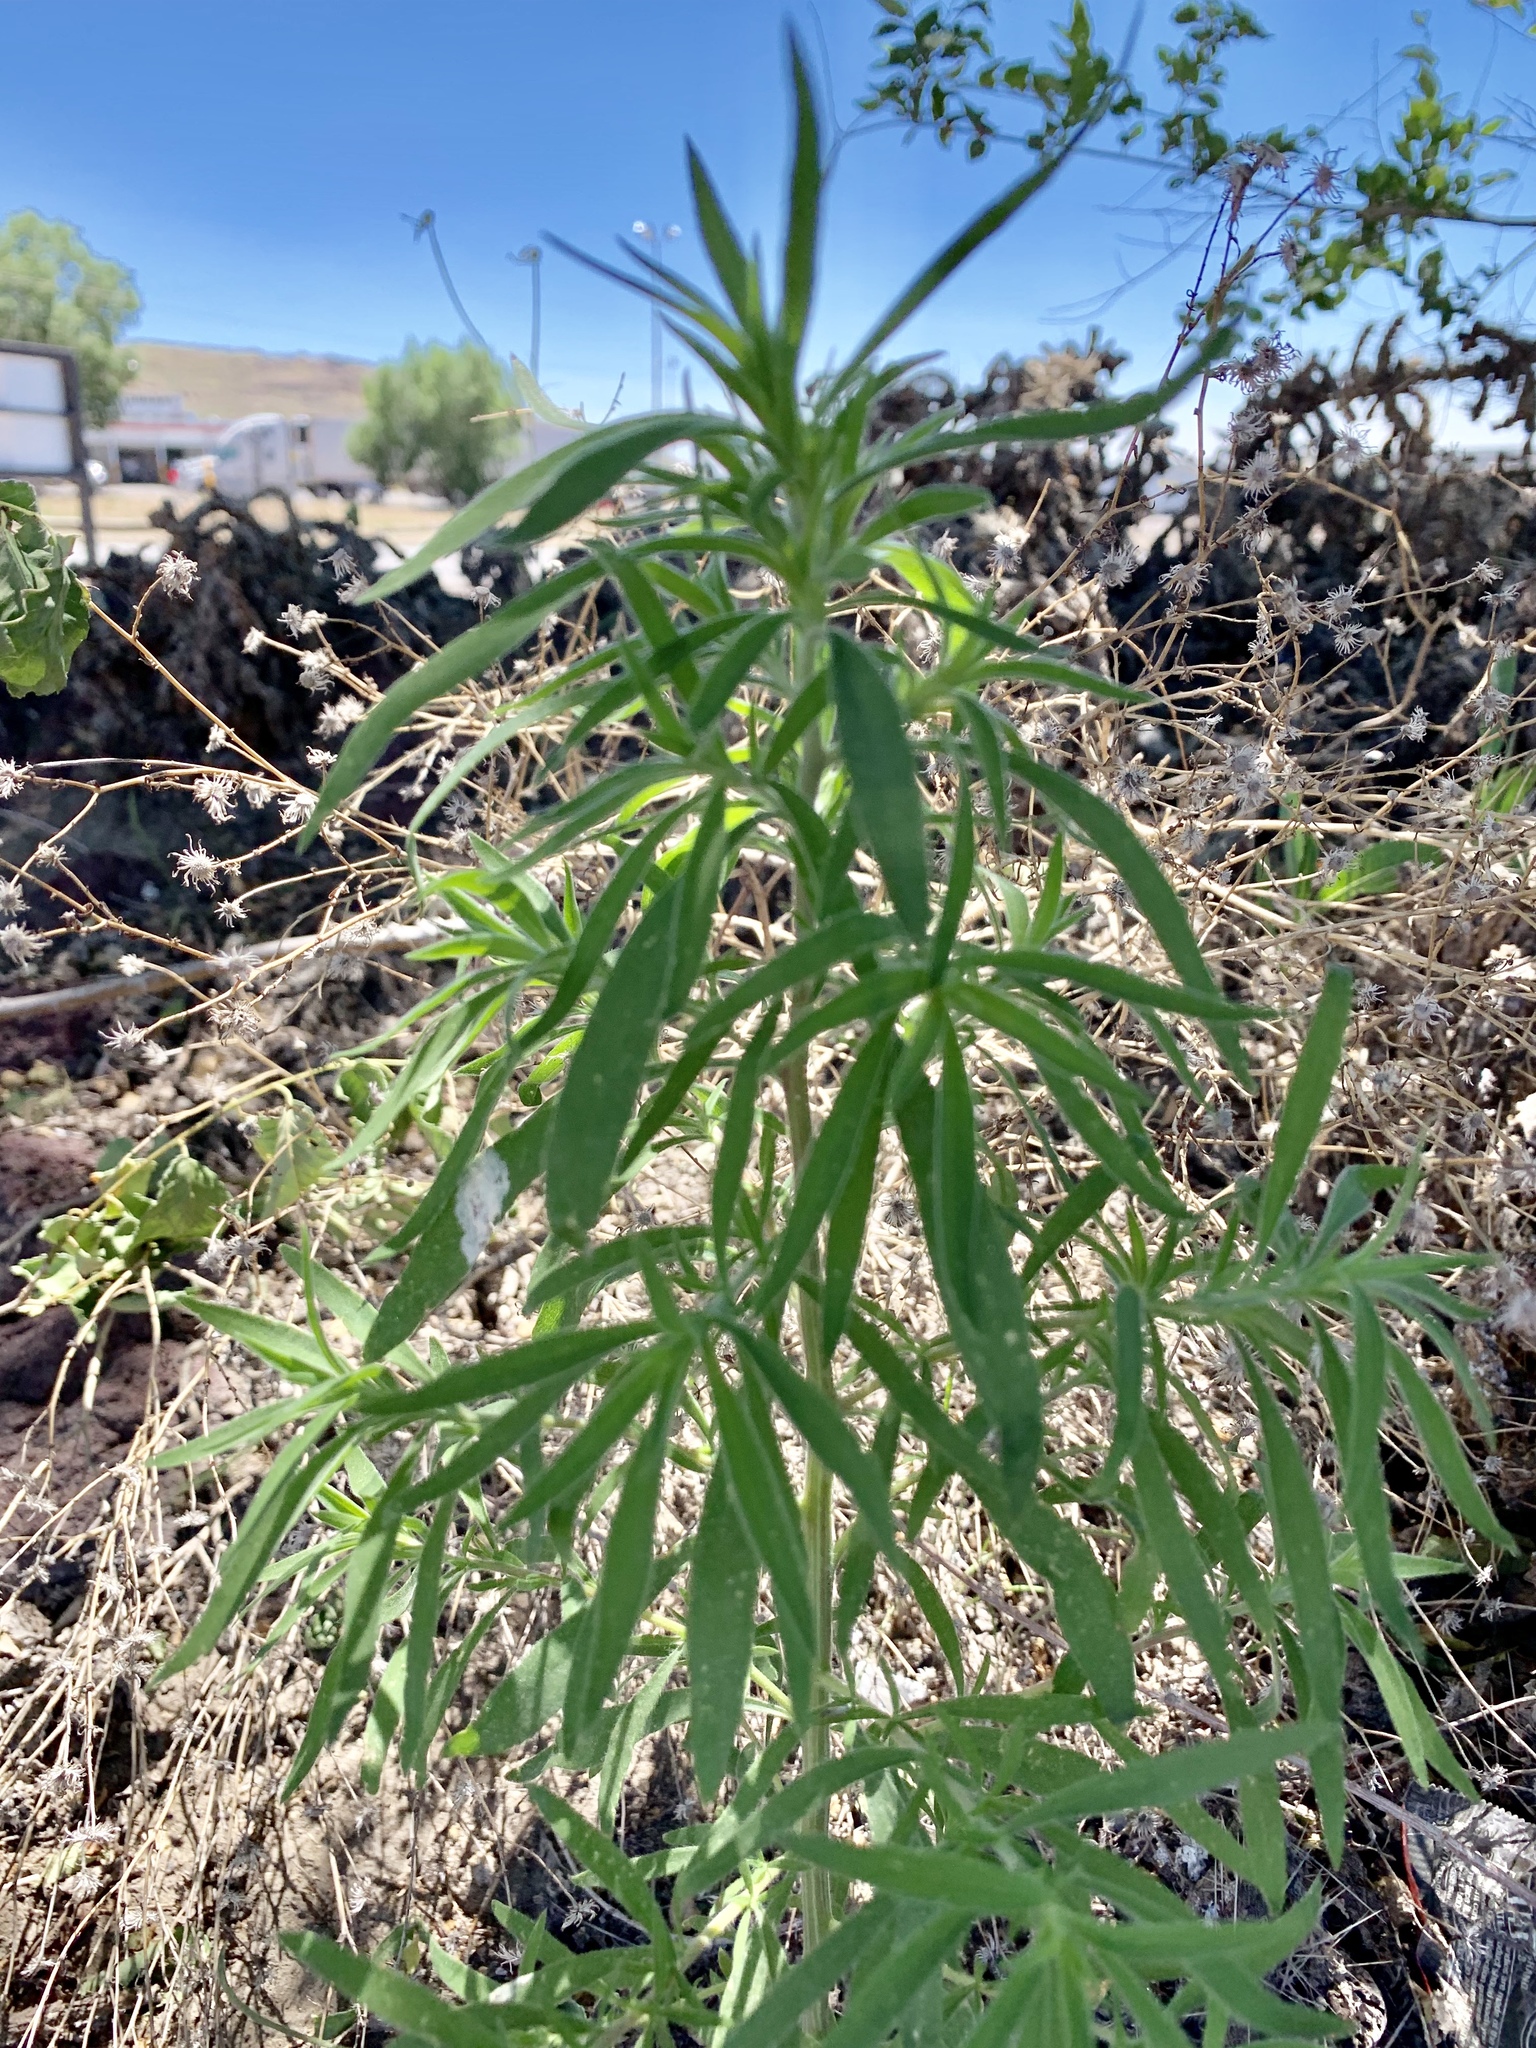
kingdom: Plantae
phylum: Tracheophyta
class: Magnoliopsida
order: Caryophyllales
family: Amaranthaceae
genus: Bassia
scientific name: Bassia scoparia
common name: Belvedere
